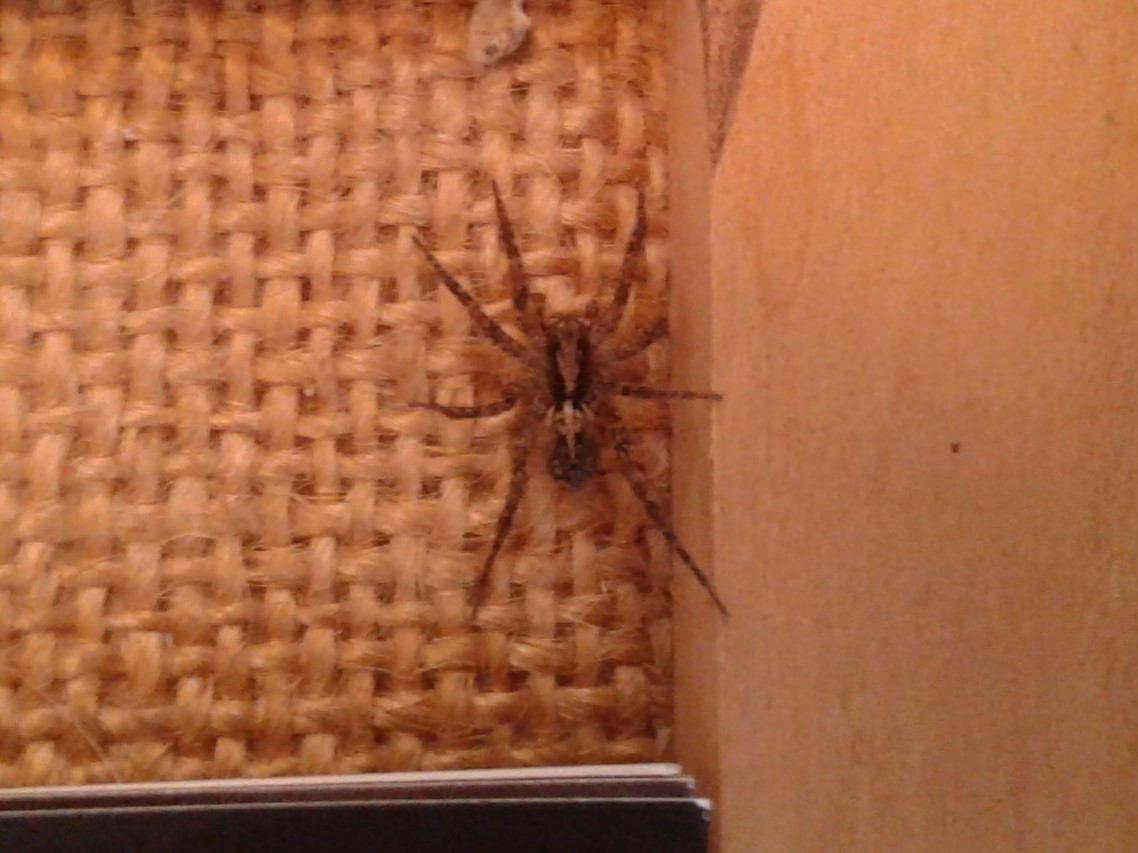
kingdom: Animalia
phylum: Arthropoda
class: Arachnida
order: Araneae
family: Lycosidae
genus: Anoteropsis
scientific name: Anoteropsis
